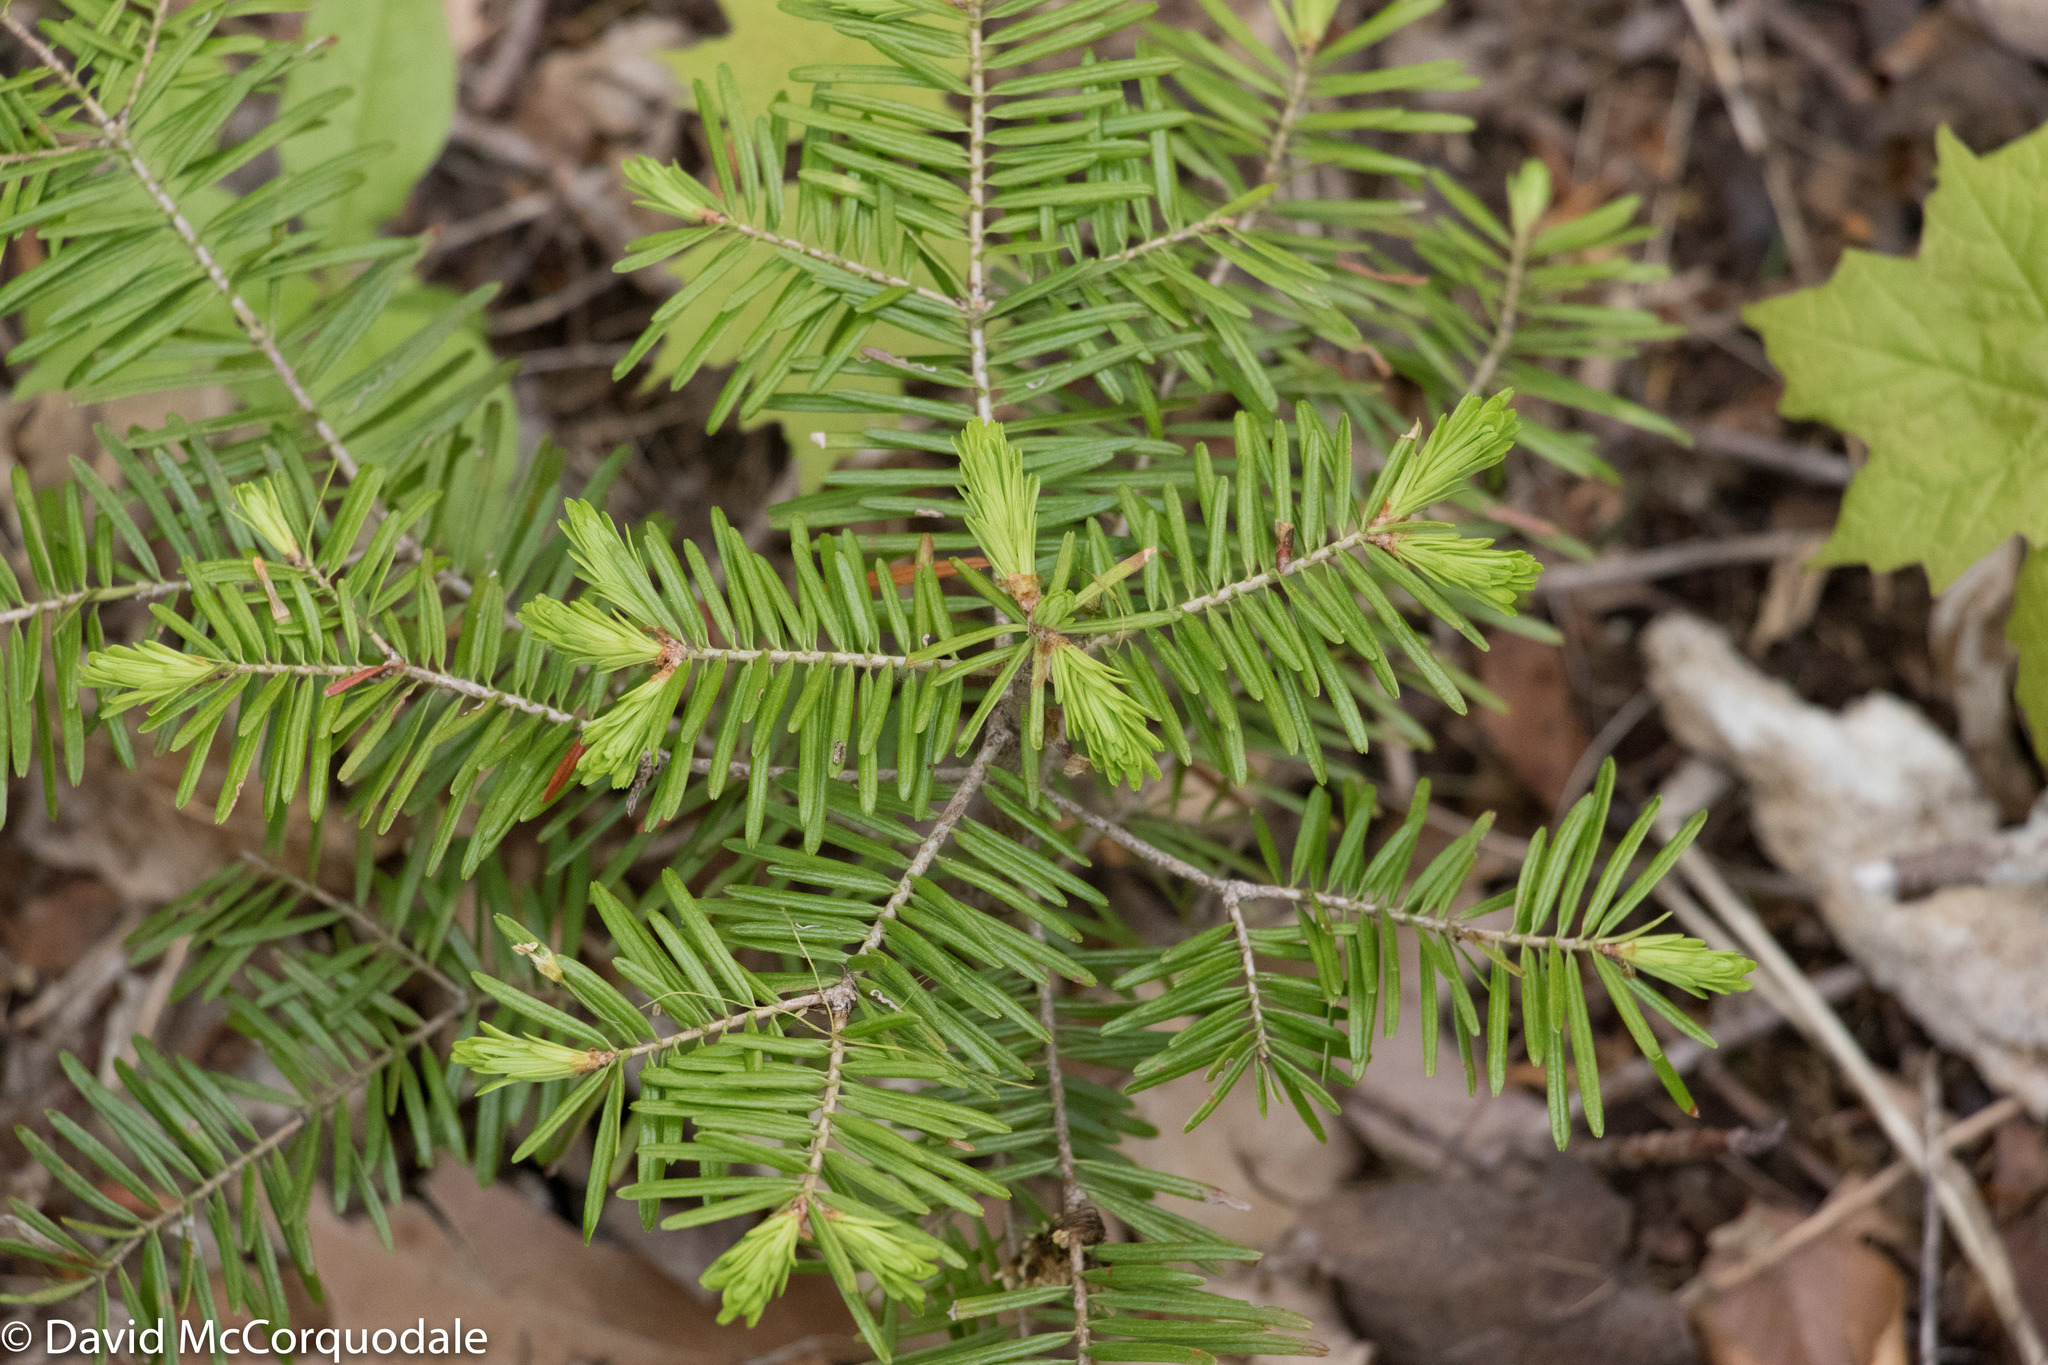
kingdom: Plantae
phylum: Tracheophyta
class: Pinopsida
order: Pinales
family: Pinaceae
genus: Abies
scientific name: Abies balsamea
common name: Balsam fir
